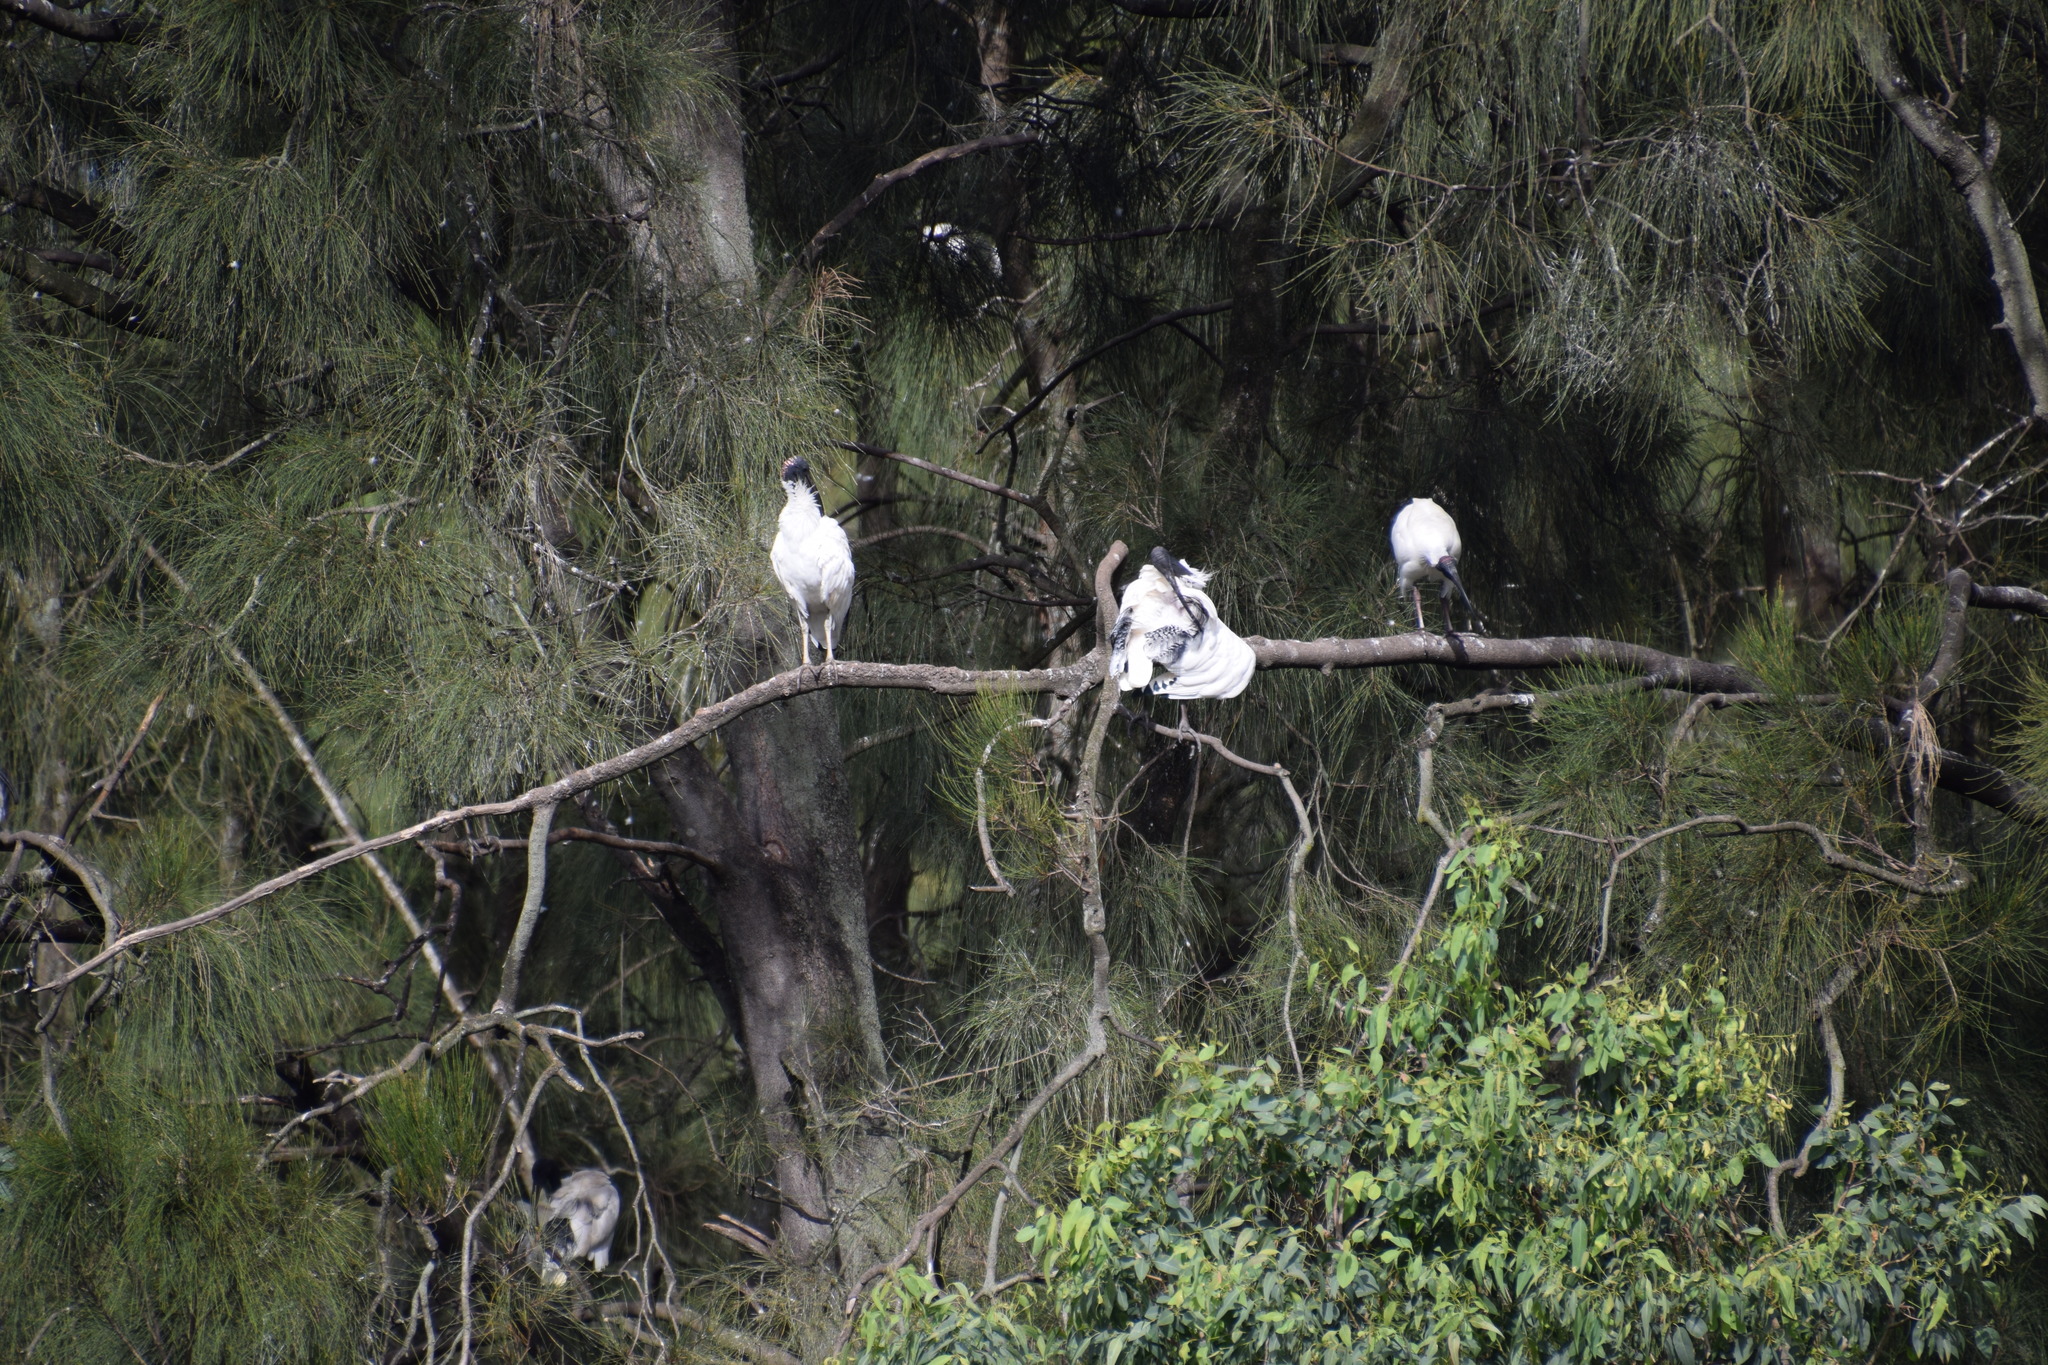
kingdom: Animalia
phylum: Chordata
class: Aves
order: Pelecaniformes
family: Threskiornithidae
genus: Threskiornis
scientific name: Threskiornis molucca
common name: Australian white ibis
